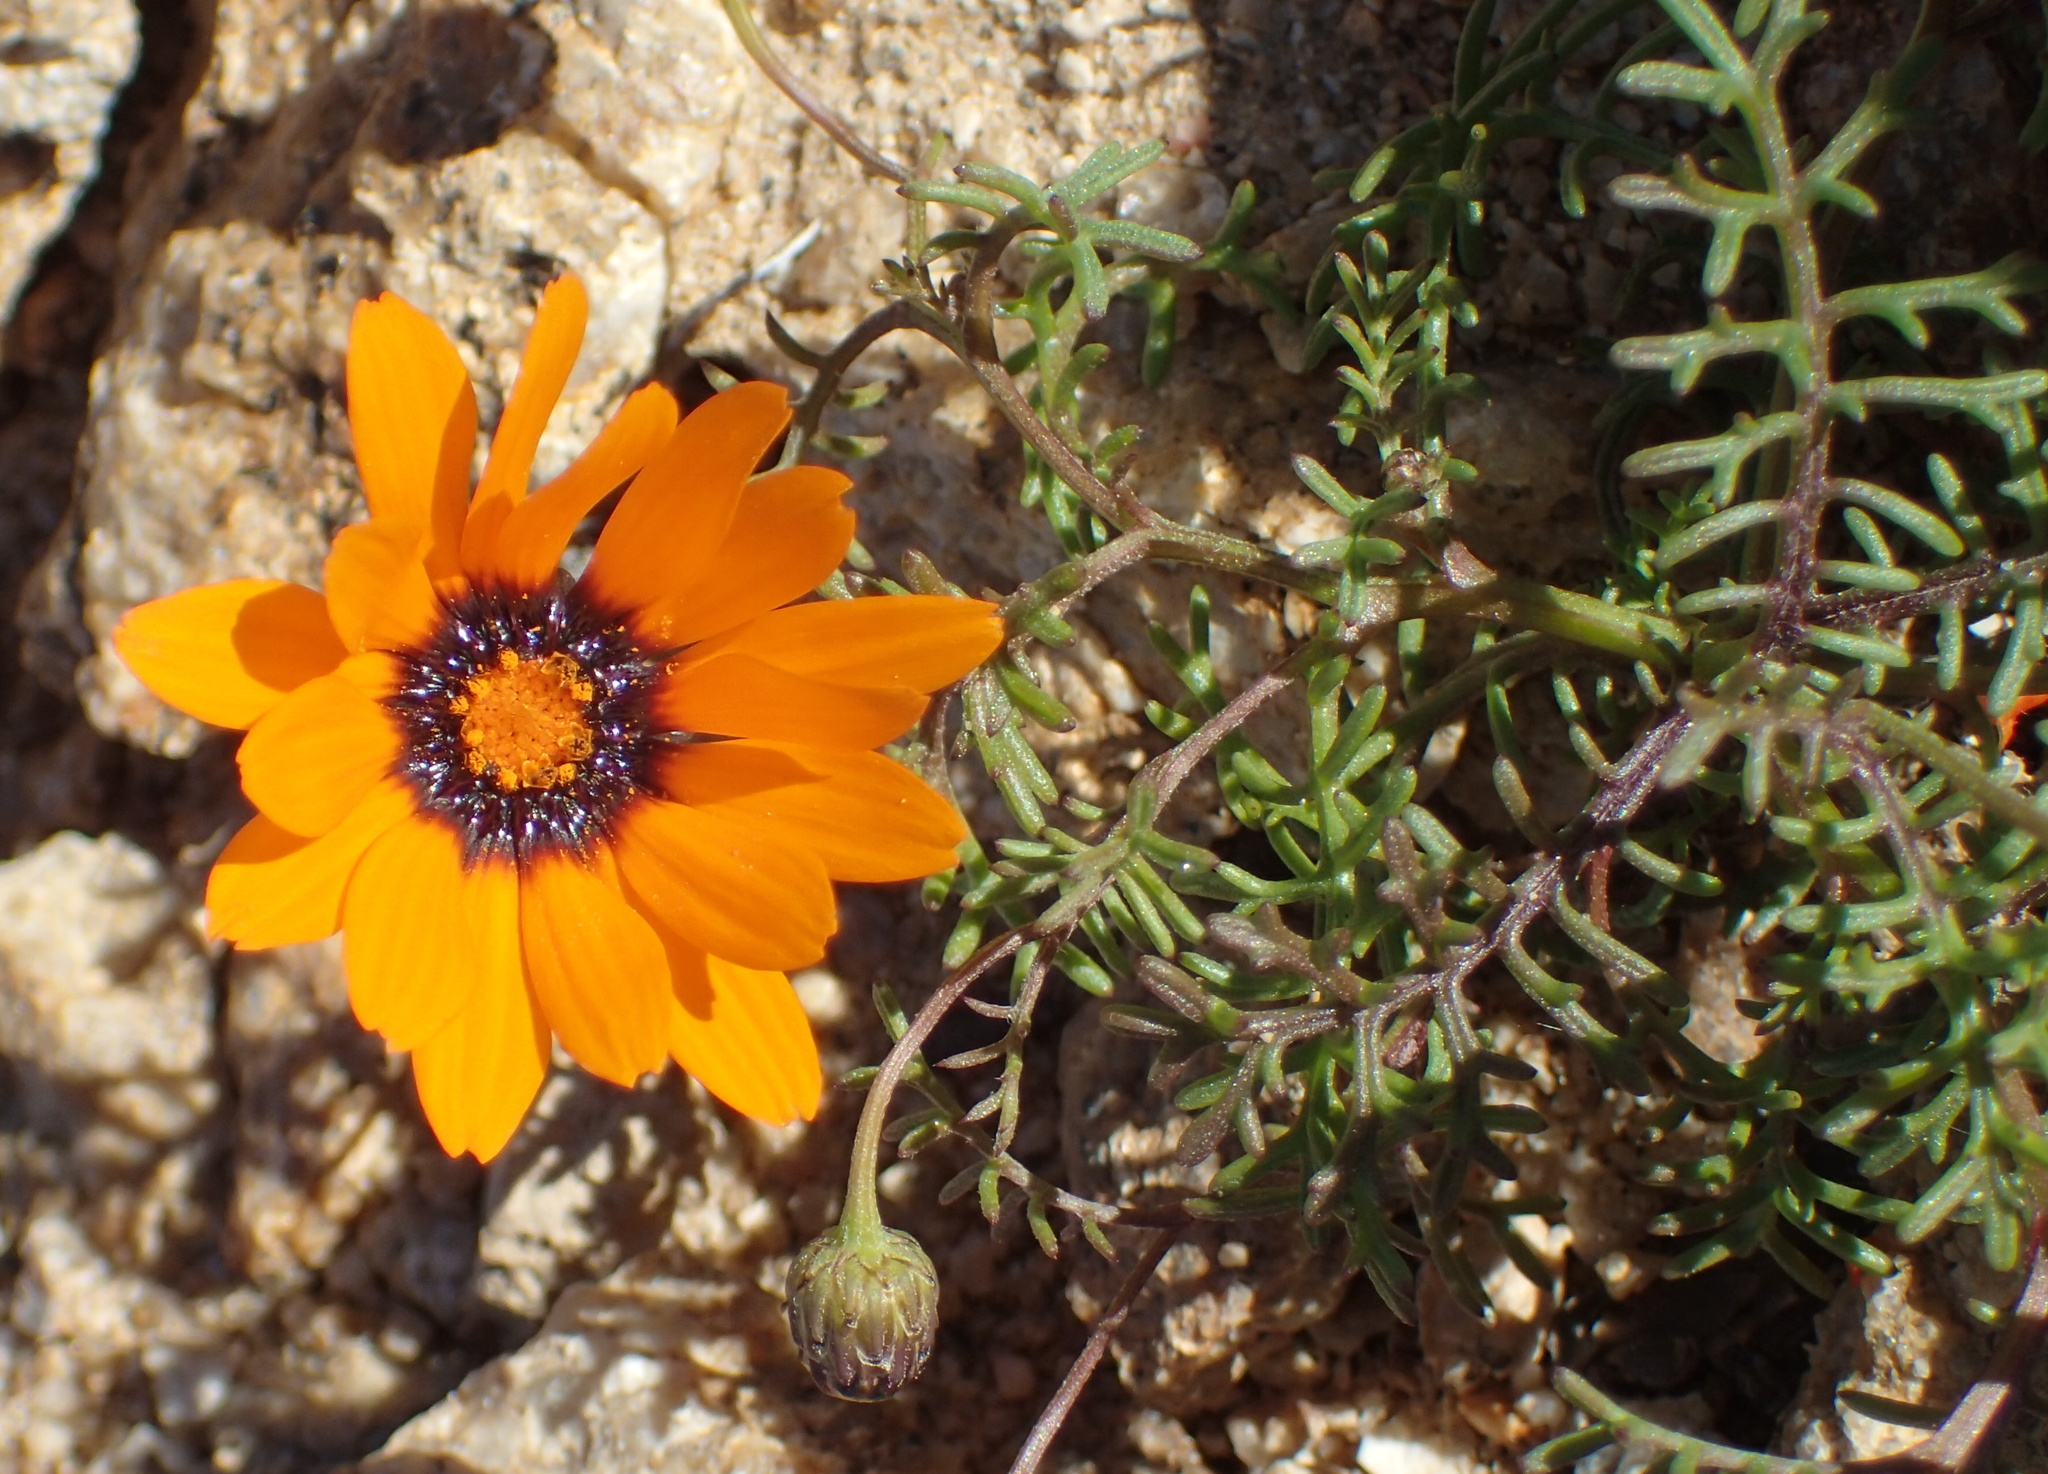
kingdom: Plantae
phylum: Tracheophyta
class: Magnoliopsida
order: Asterales
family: Asteraceae
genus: Ursinia
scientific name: Ursinia calenduliflora
